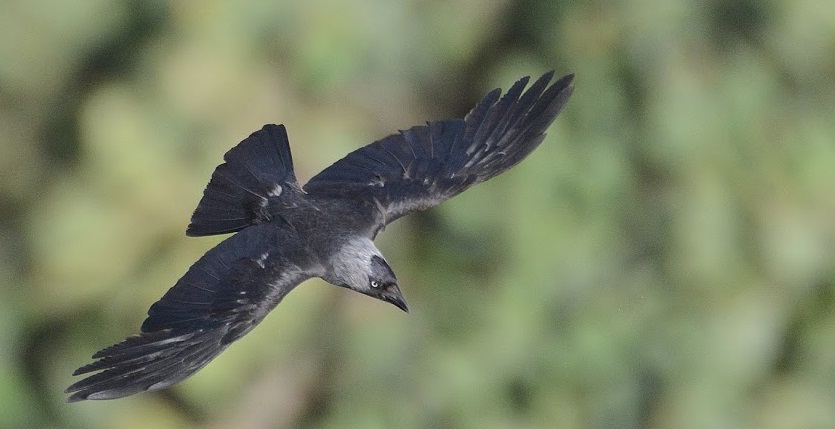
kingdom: Animalia
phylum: Chordata
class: Aves
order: Passeriformes
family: Corvidae
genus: Coloeus
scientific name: Coloeus monedula
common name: Western jackdaw
